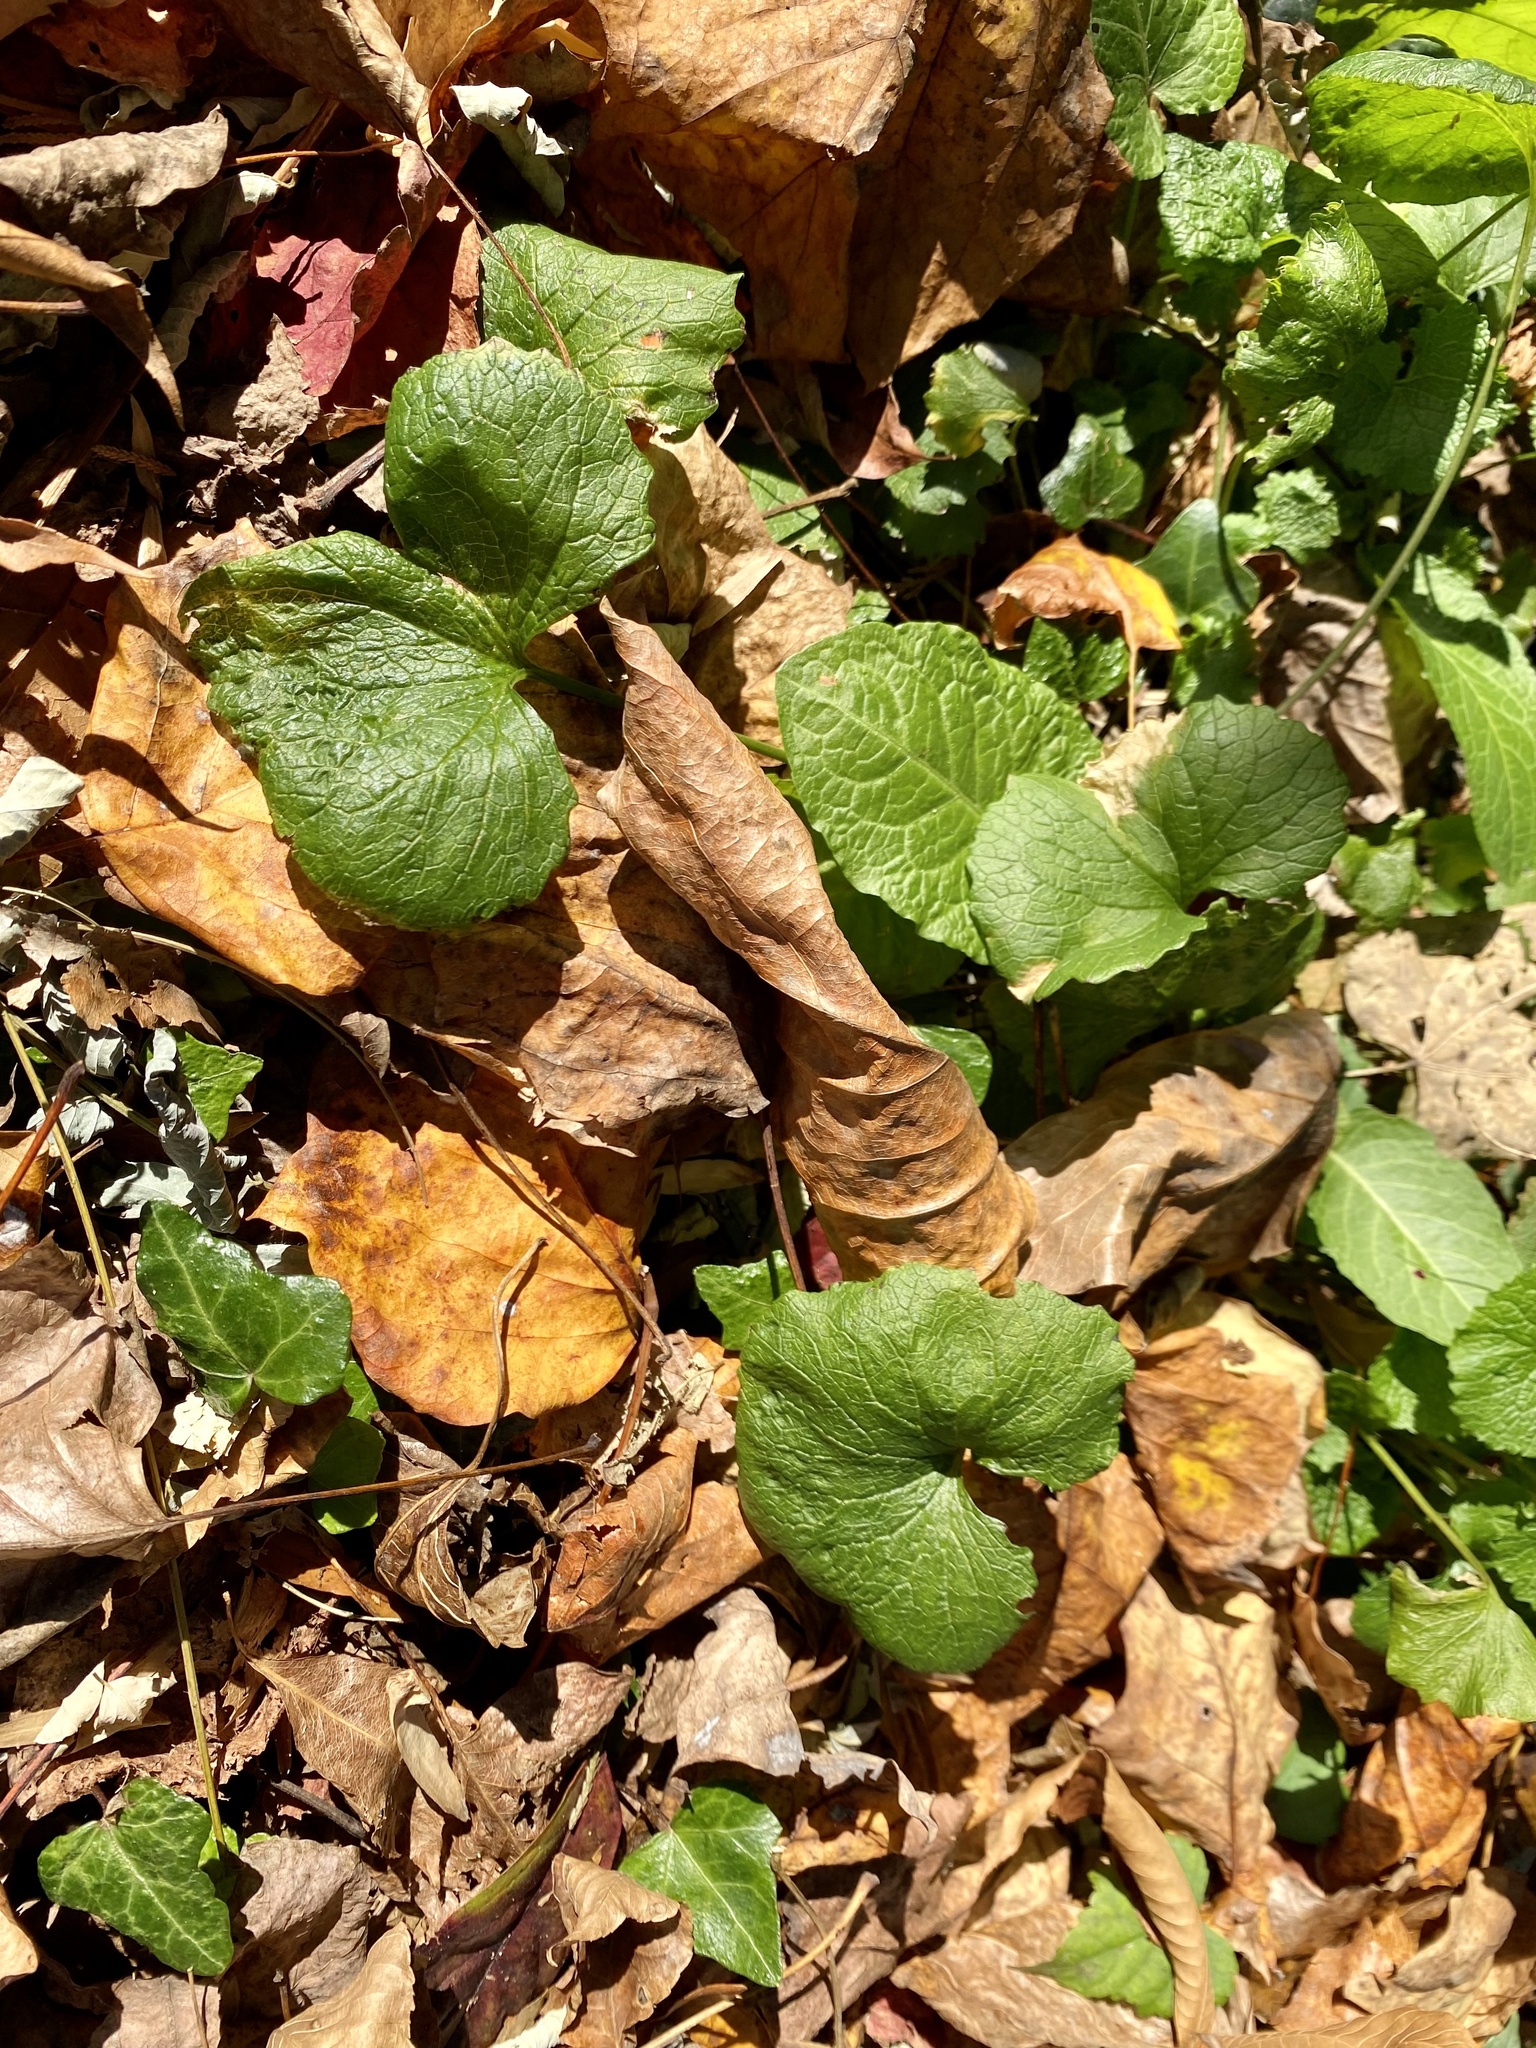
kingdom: Plantae
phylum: Tracheophyta
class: Magnoliopsida
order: Brassicales
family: Brassicaceae
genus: Alliaria
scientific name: Alliaria petiolata
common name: Garlic mustard
